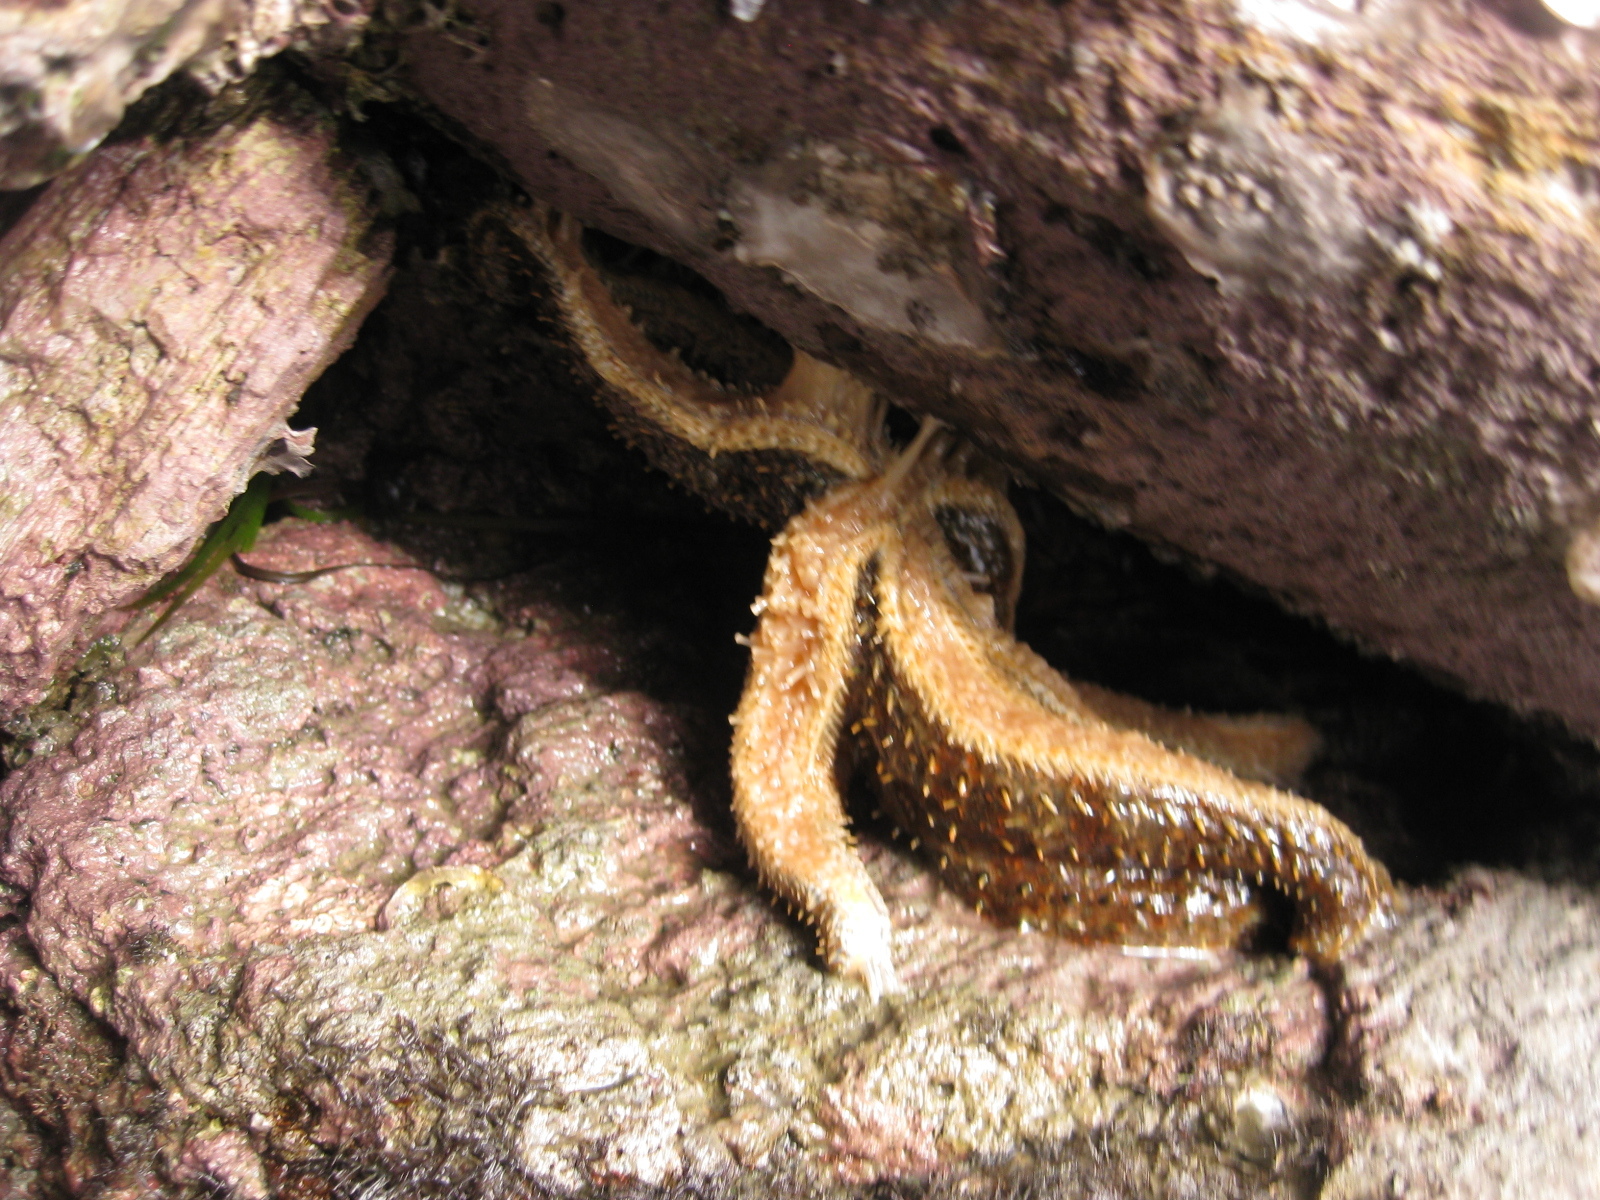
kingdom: Animalia
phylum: Echinodermata
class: Asteroidea
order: Forcipulatida
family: Asteriidae
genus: Coscinasterias
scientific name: Coscinasterias muricata
